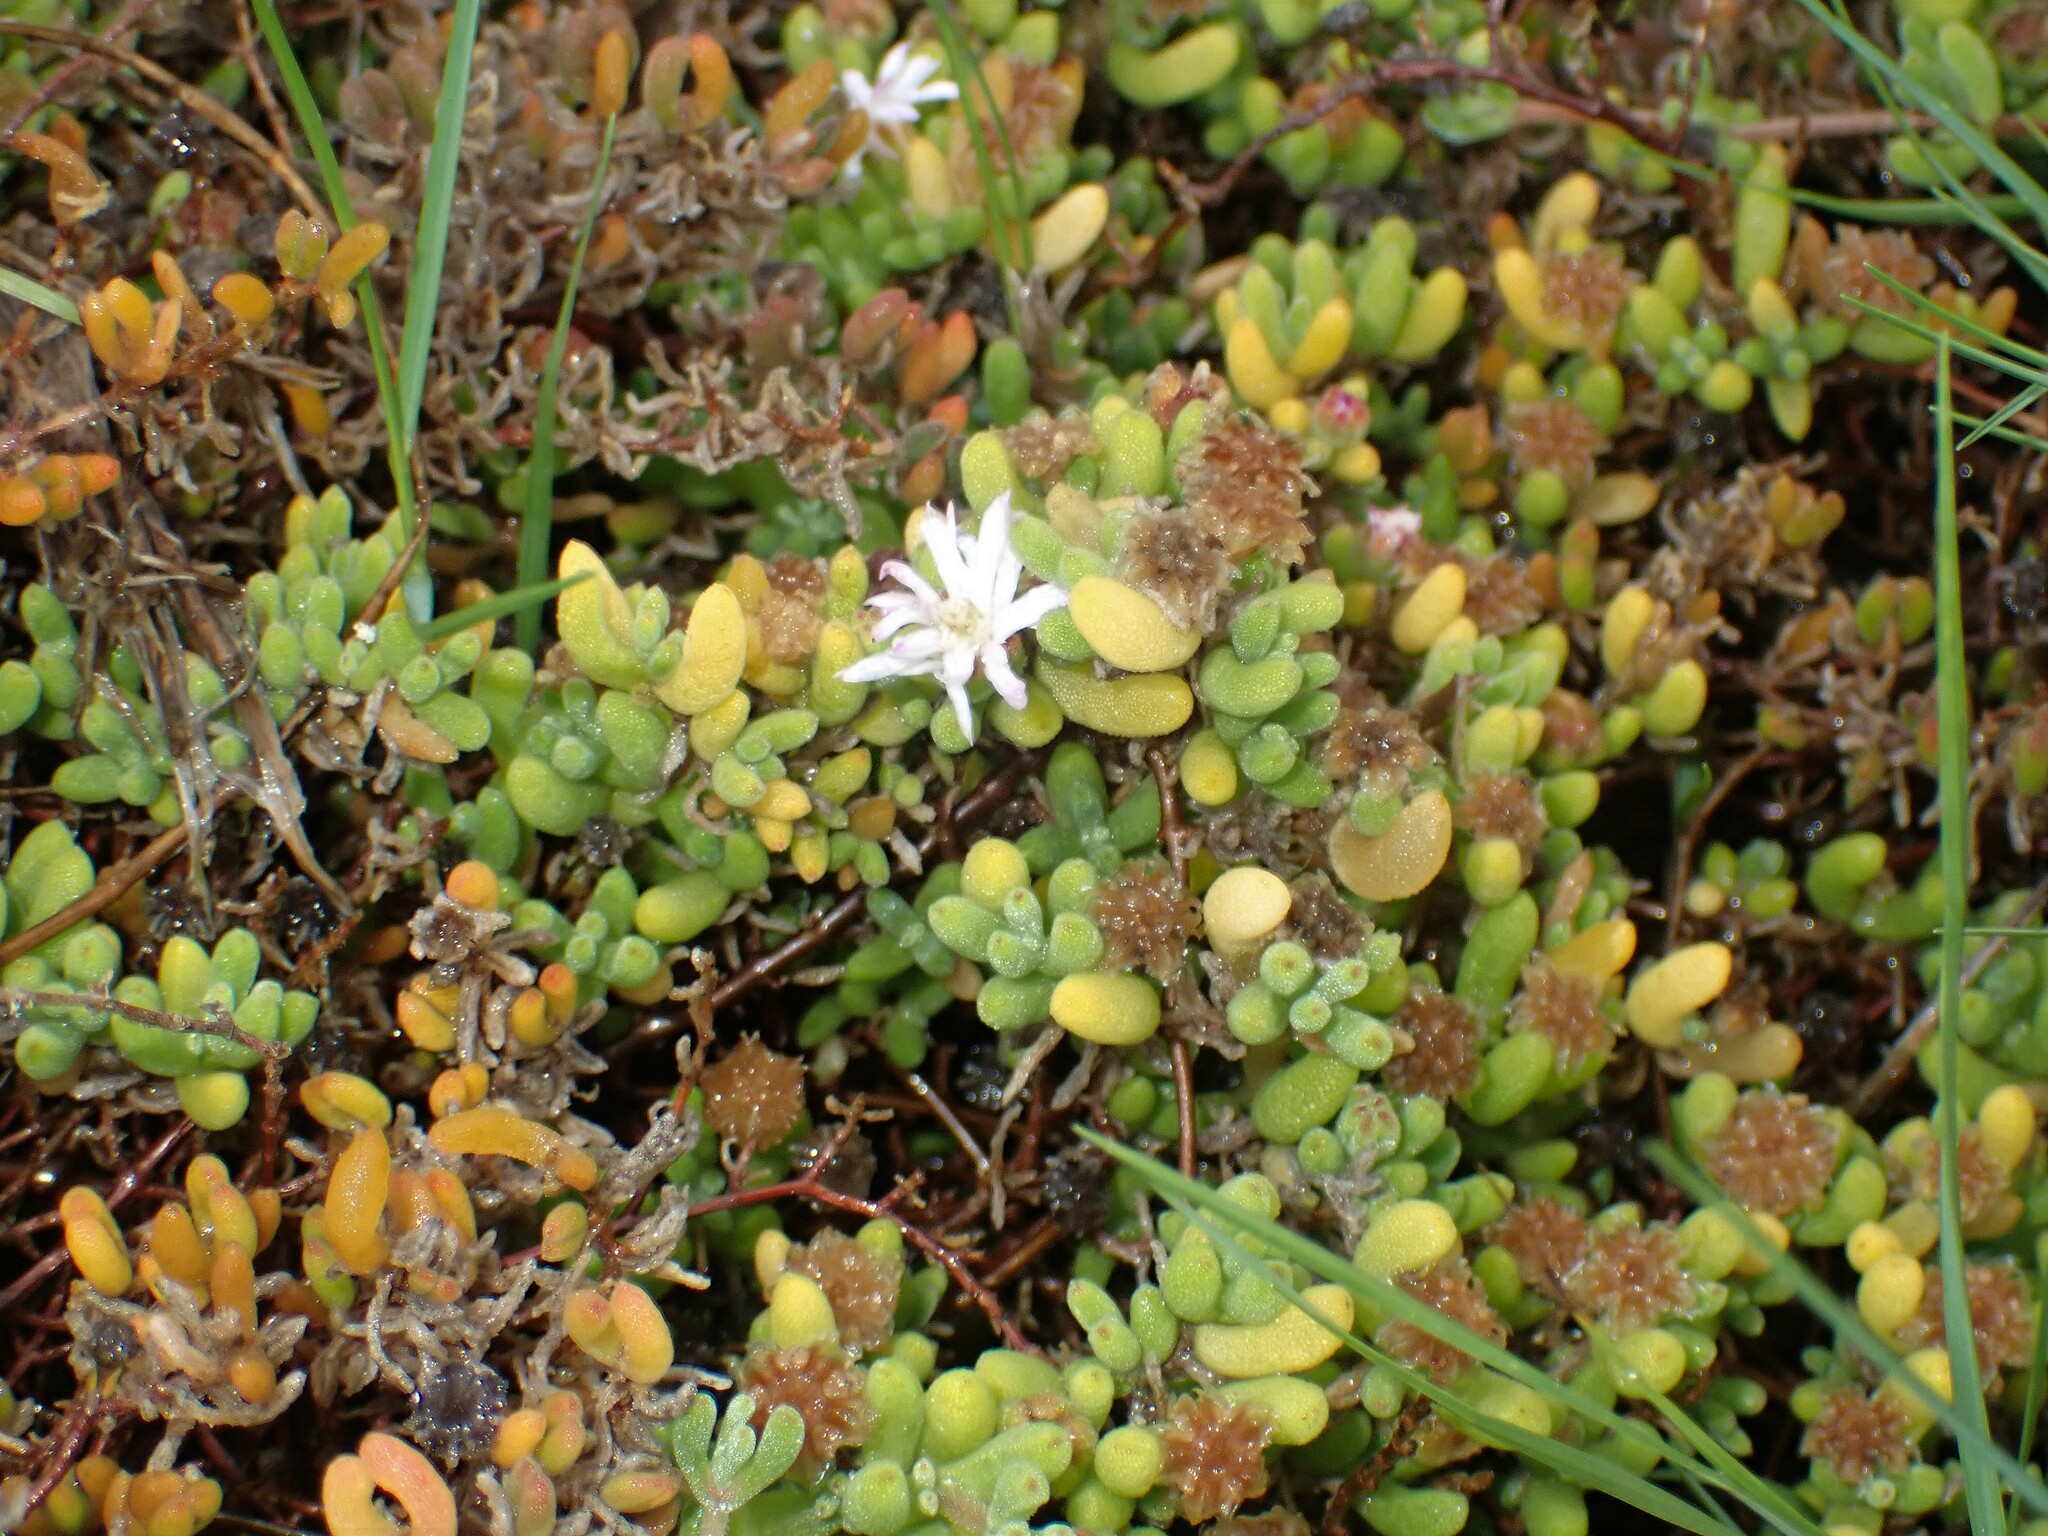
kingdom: Plantae
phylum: Tracheophyta
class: Magnoliopsida
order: Caryophyllales
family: Aizoaceae
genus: Drosanthemum
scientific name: Drosanthemum floribundum
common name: Pale dewplant
